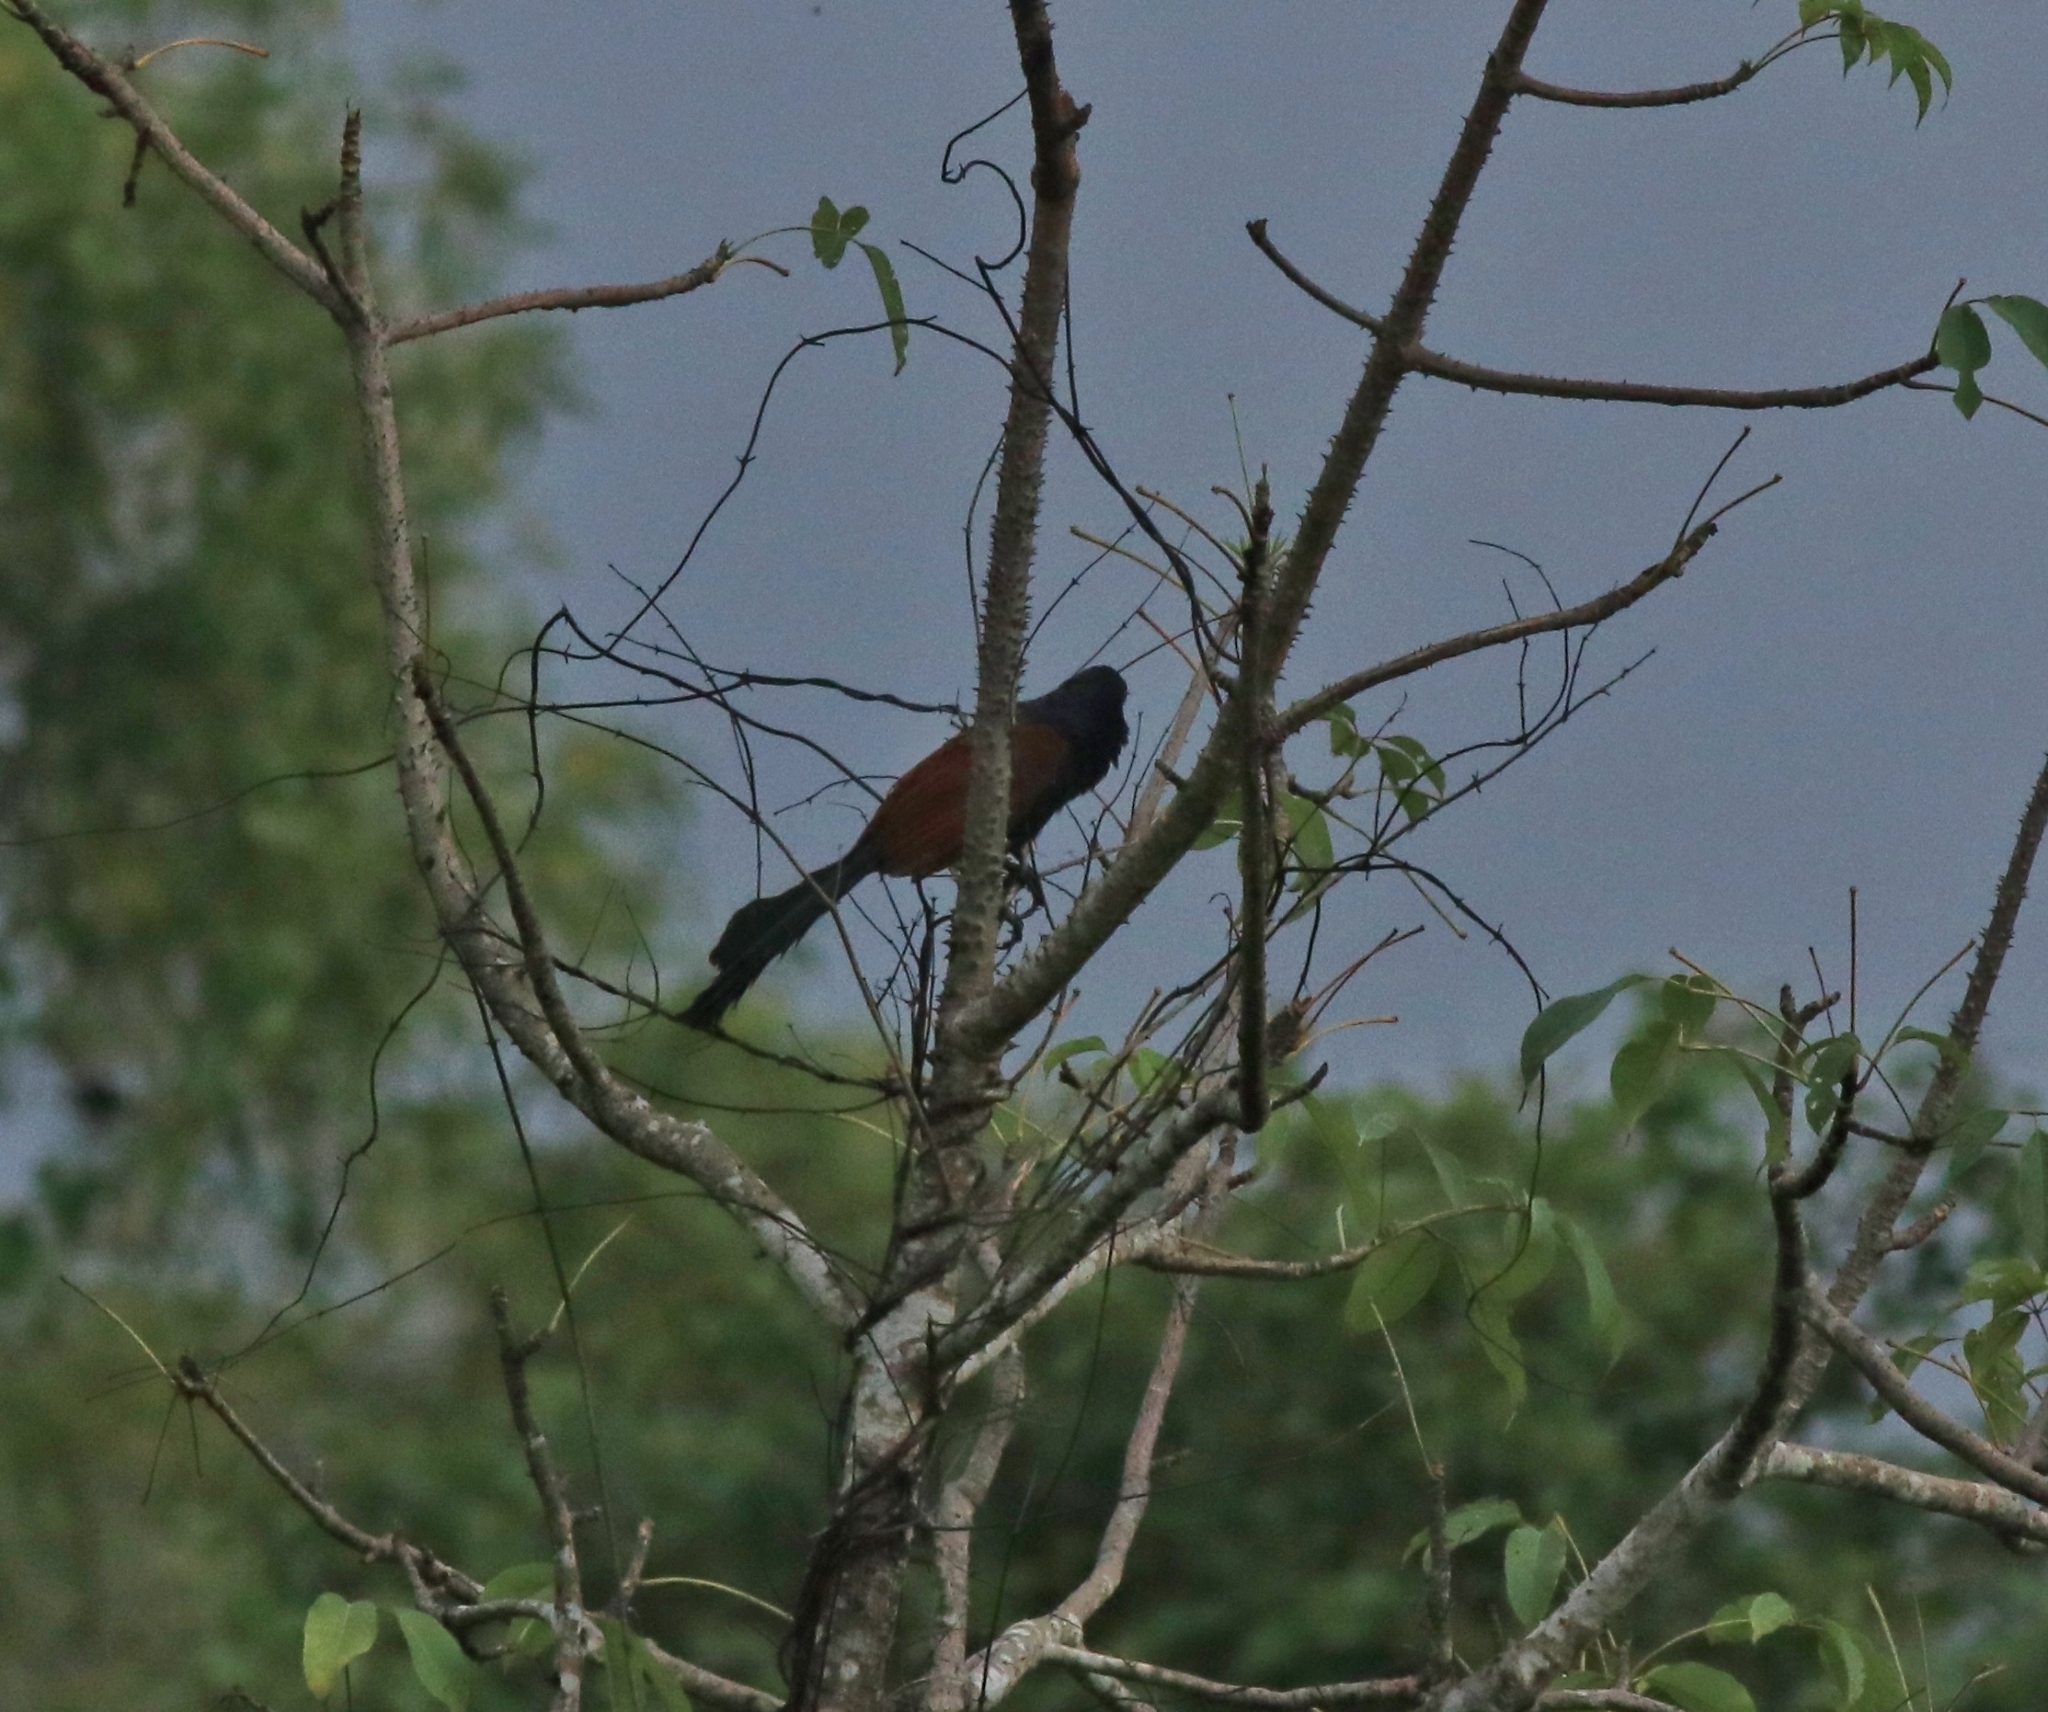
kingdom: Animalia
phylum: Chordata
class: Aves
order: Cuculiformes
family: Cuculidae
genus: Centropus
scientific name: Centropus sinensis
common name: Greater coucal
